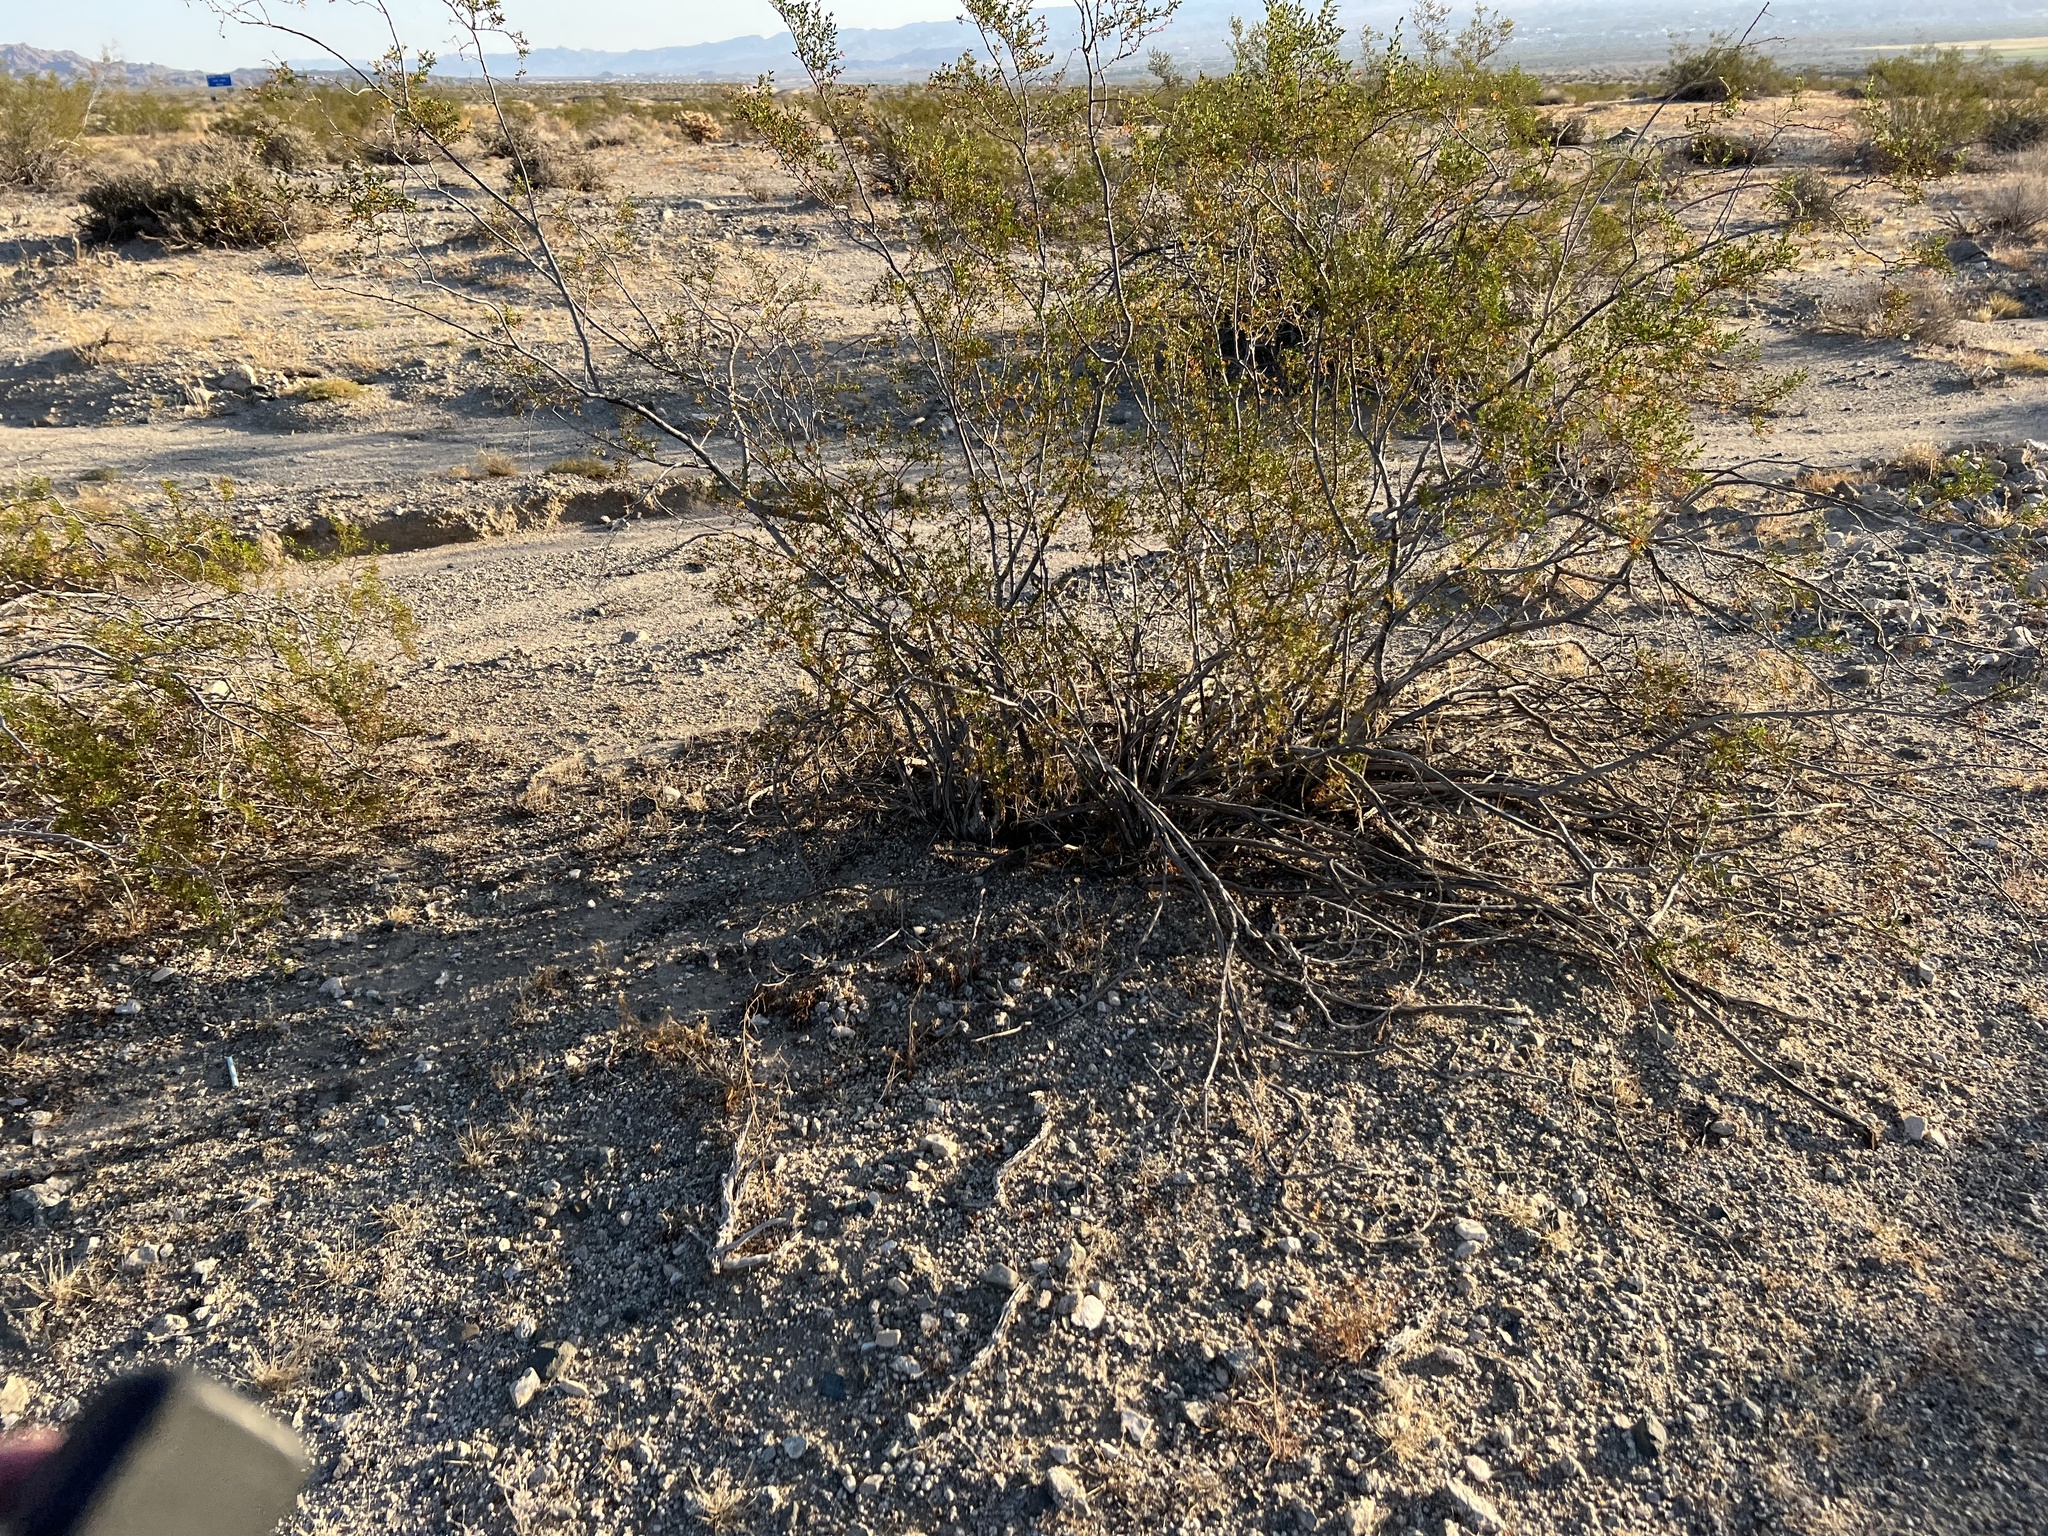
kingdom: Plantae
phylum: Tracheophyta
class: Magnoliopsida
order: Zygophyllales
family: Zygophyllaceae
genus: Larrea
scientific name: Larrea tridentata
